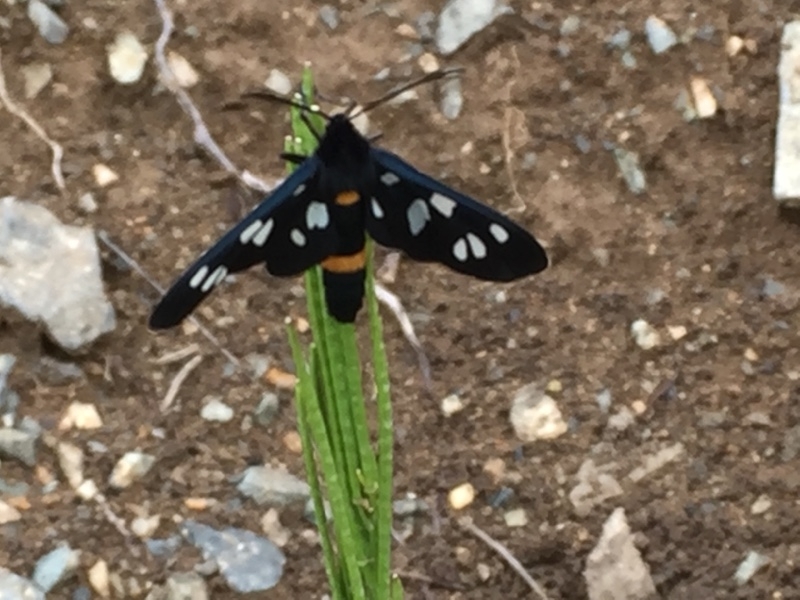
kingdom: Animalia
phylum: Arthropoda
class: Insecta
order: Lepidoptera
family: Erebidae
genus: Amata
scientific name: Amata phegea
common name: Nine-spotted
